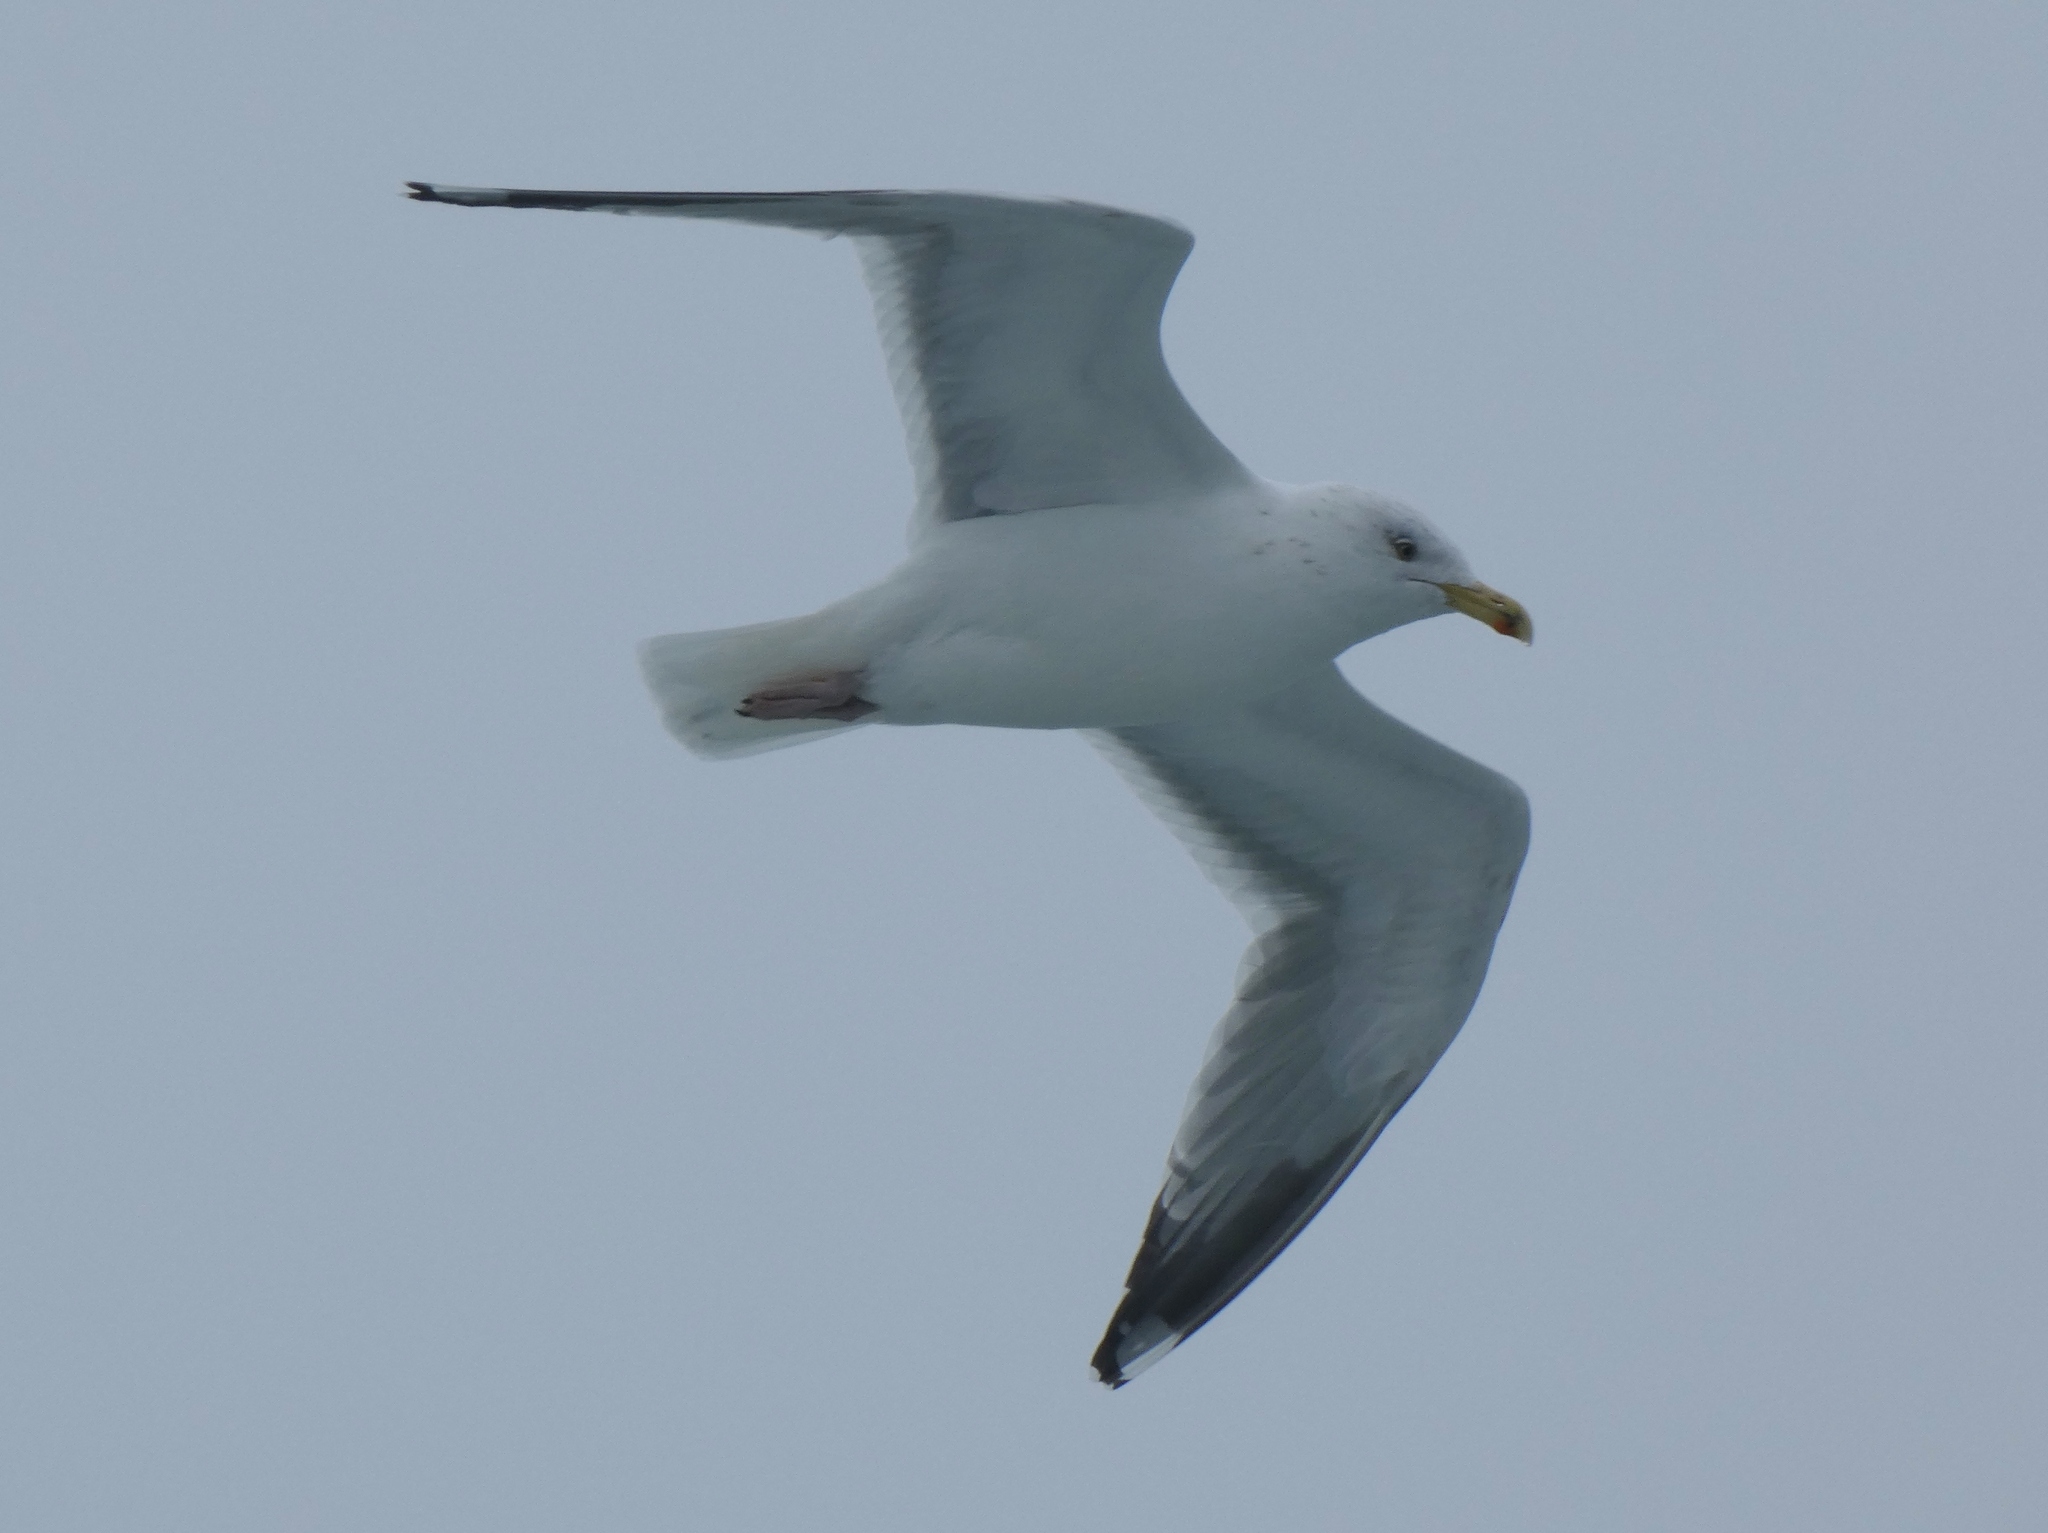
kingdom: Animalia
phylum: Chordata
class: Aves
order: Charadriiformes
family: Laridae
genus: Larus
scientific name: Larus argentatus
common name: Herring gull
